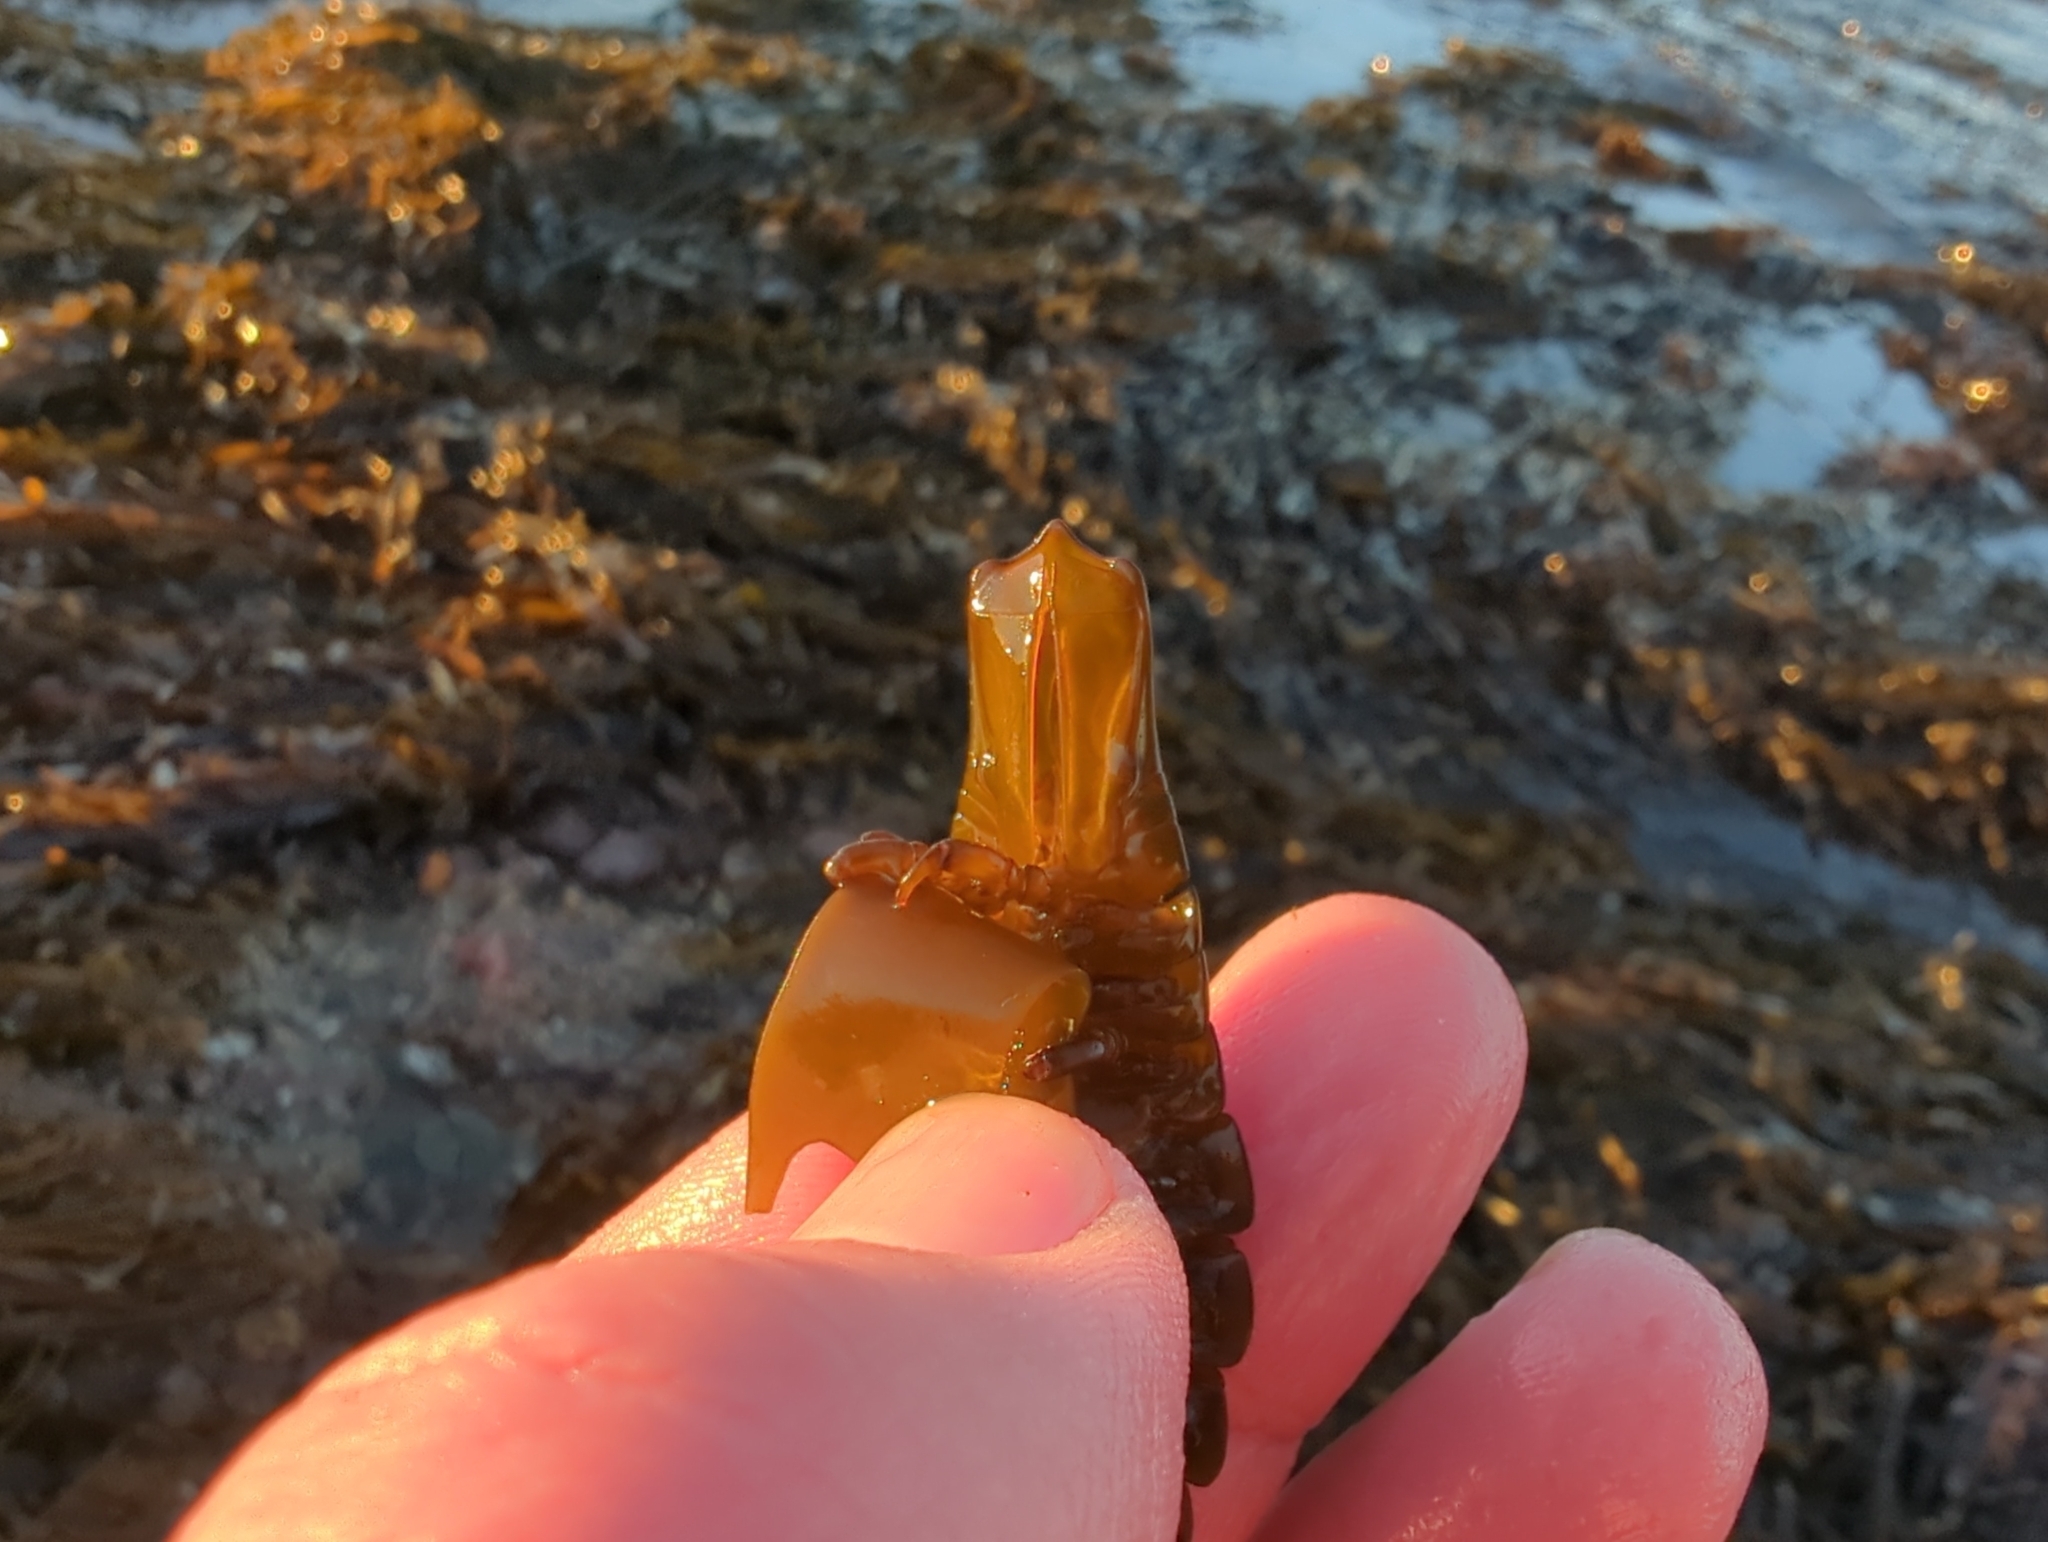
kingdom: Animalia
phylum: Arthropoda
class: Malacostraca
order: Isopoda
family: Idoteidae
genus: Pentidotea
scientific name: Pentidotea stenops
